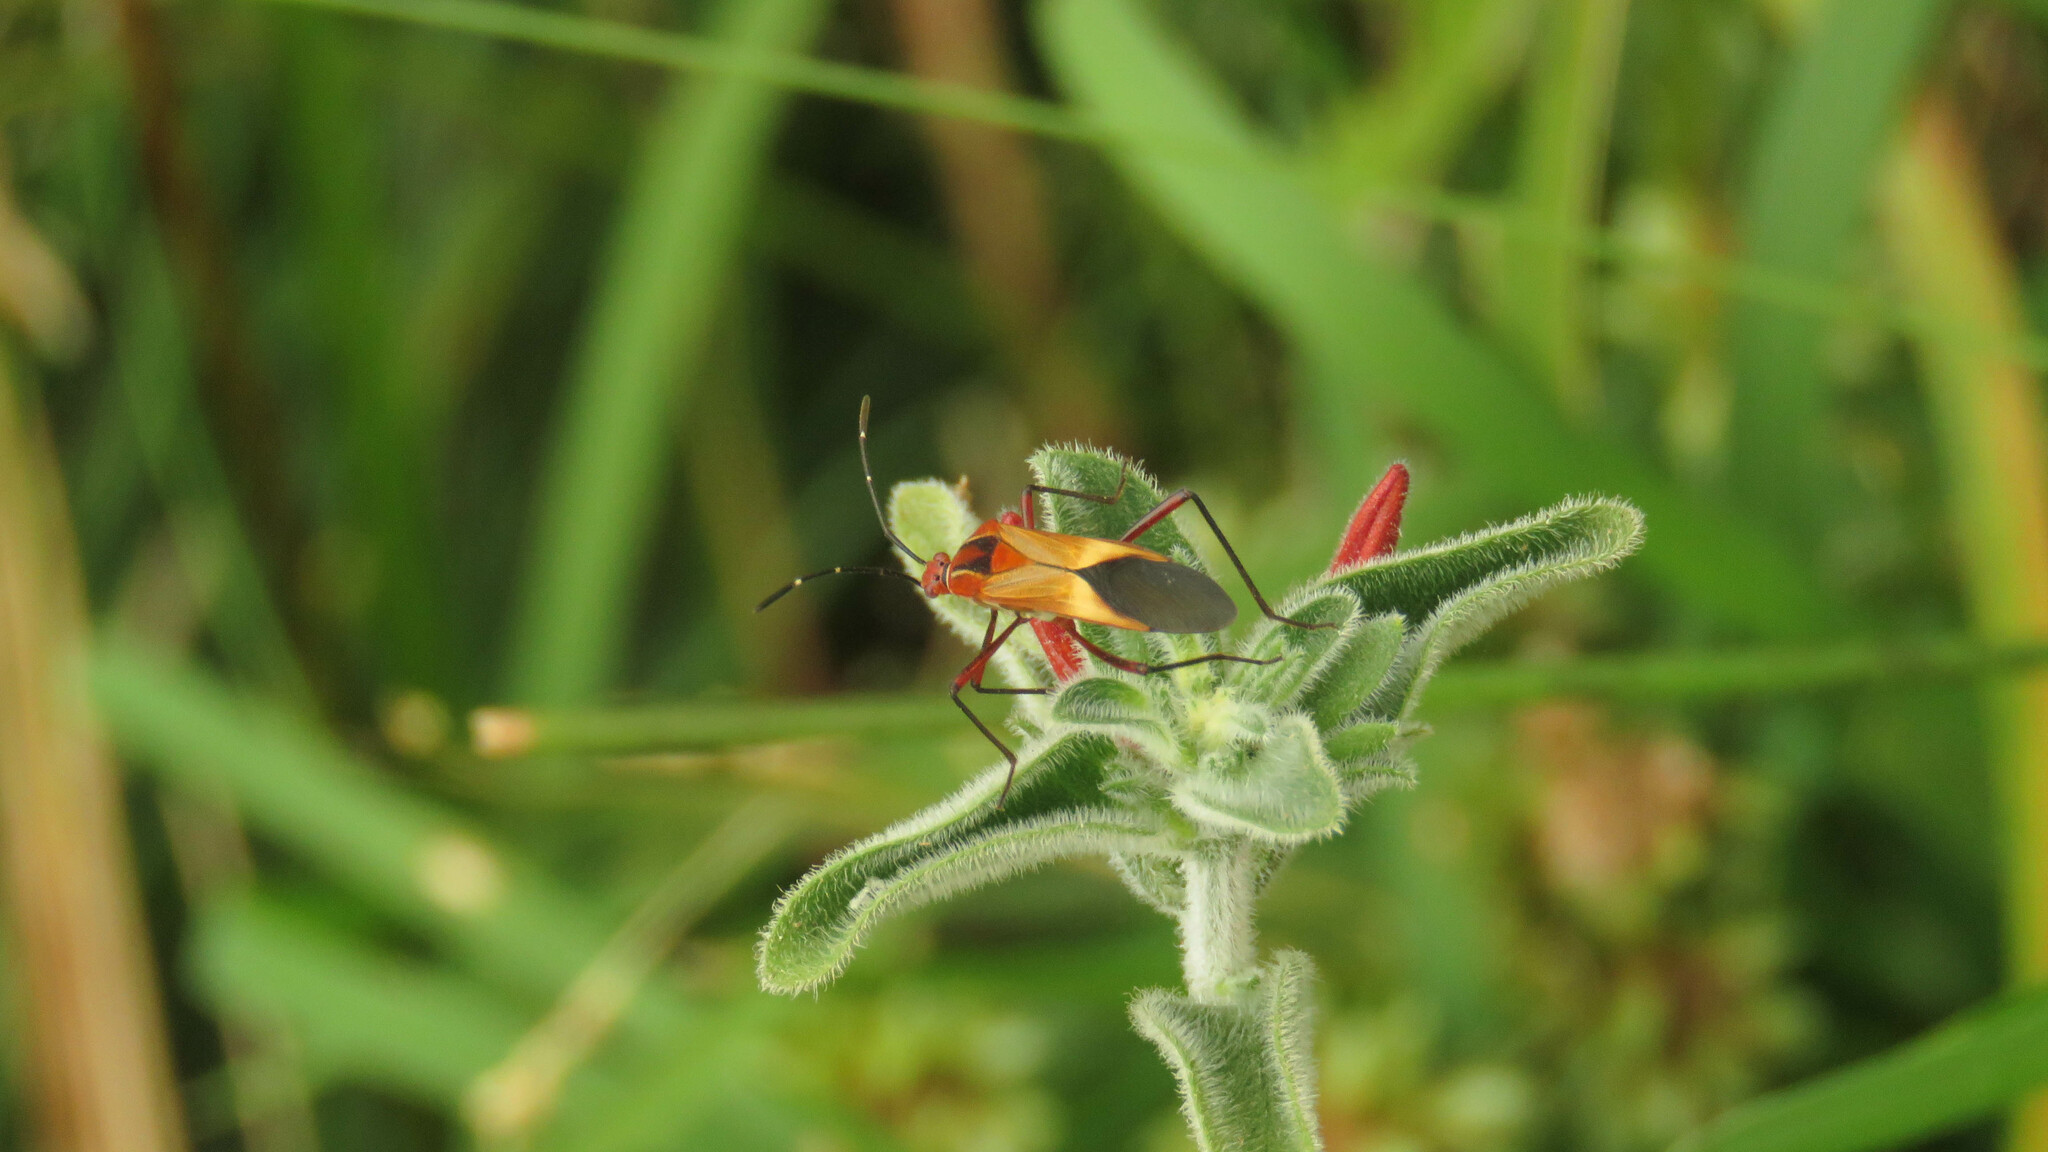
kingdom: Animalia
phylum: Arthropoda
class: Insecta
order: Hemiptera
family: Coreidae
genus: Hypselonotus
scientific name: Hypselonotus interruptus
